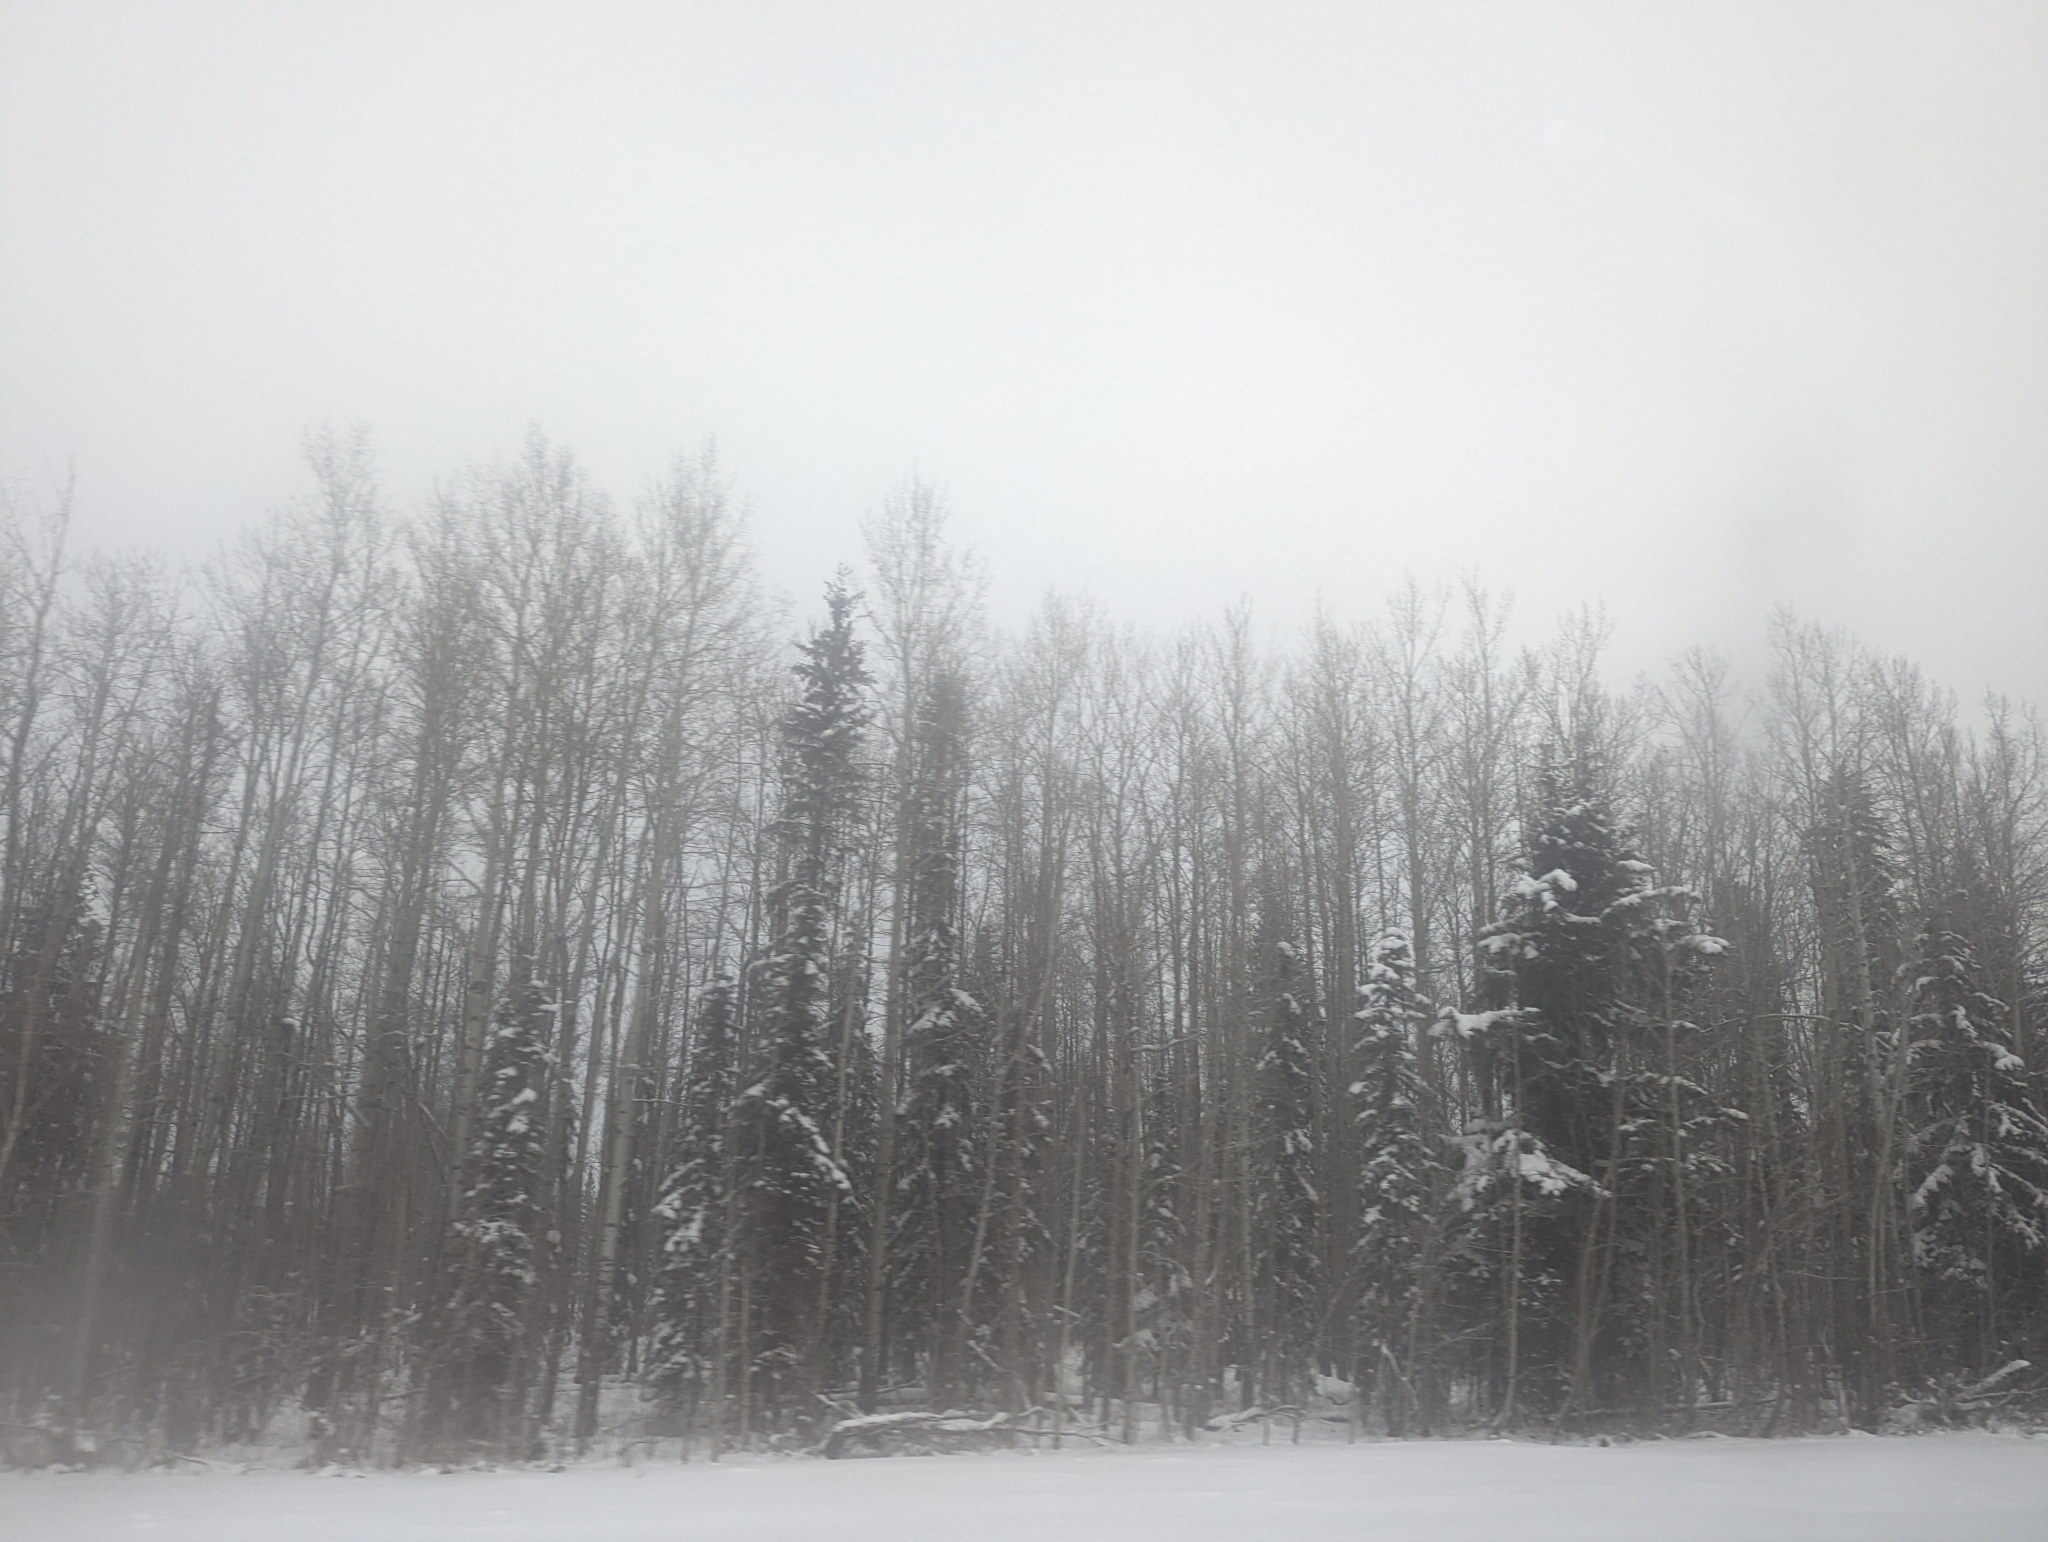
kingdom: Plantae
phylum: Tracheophyta
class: Magnoliopsida
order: Malpighiales
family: Salicaceae
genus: Populus
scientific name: Populus tremuloides
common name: Quaking aspen
